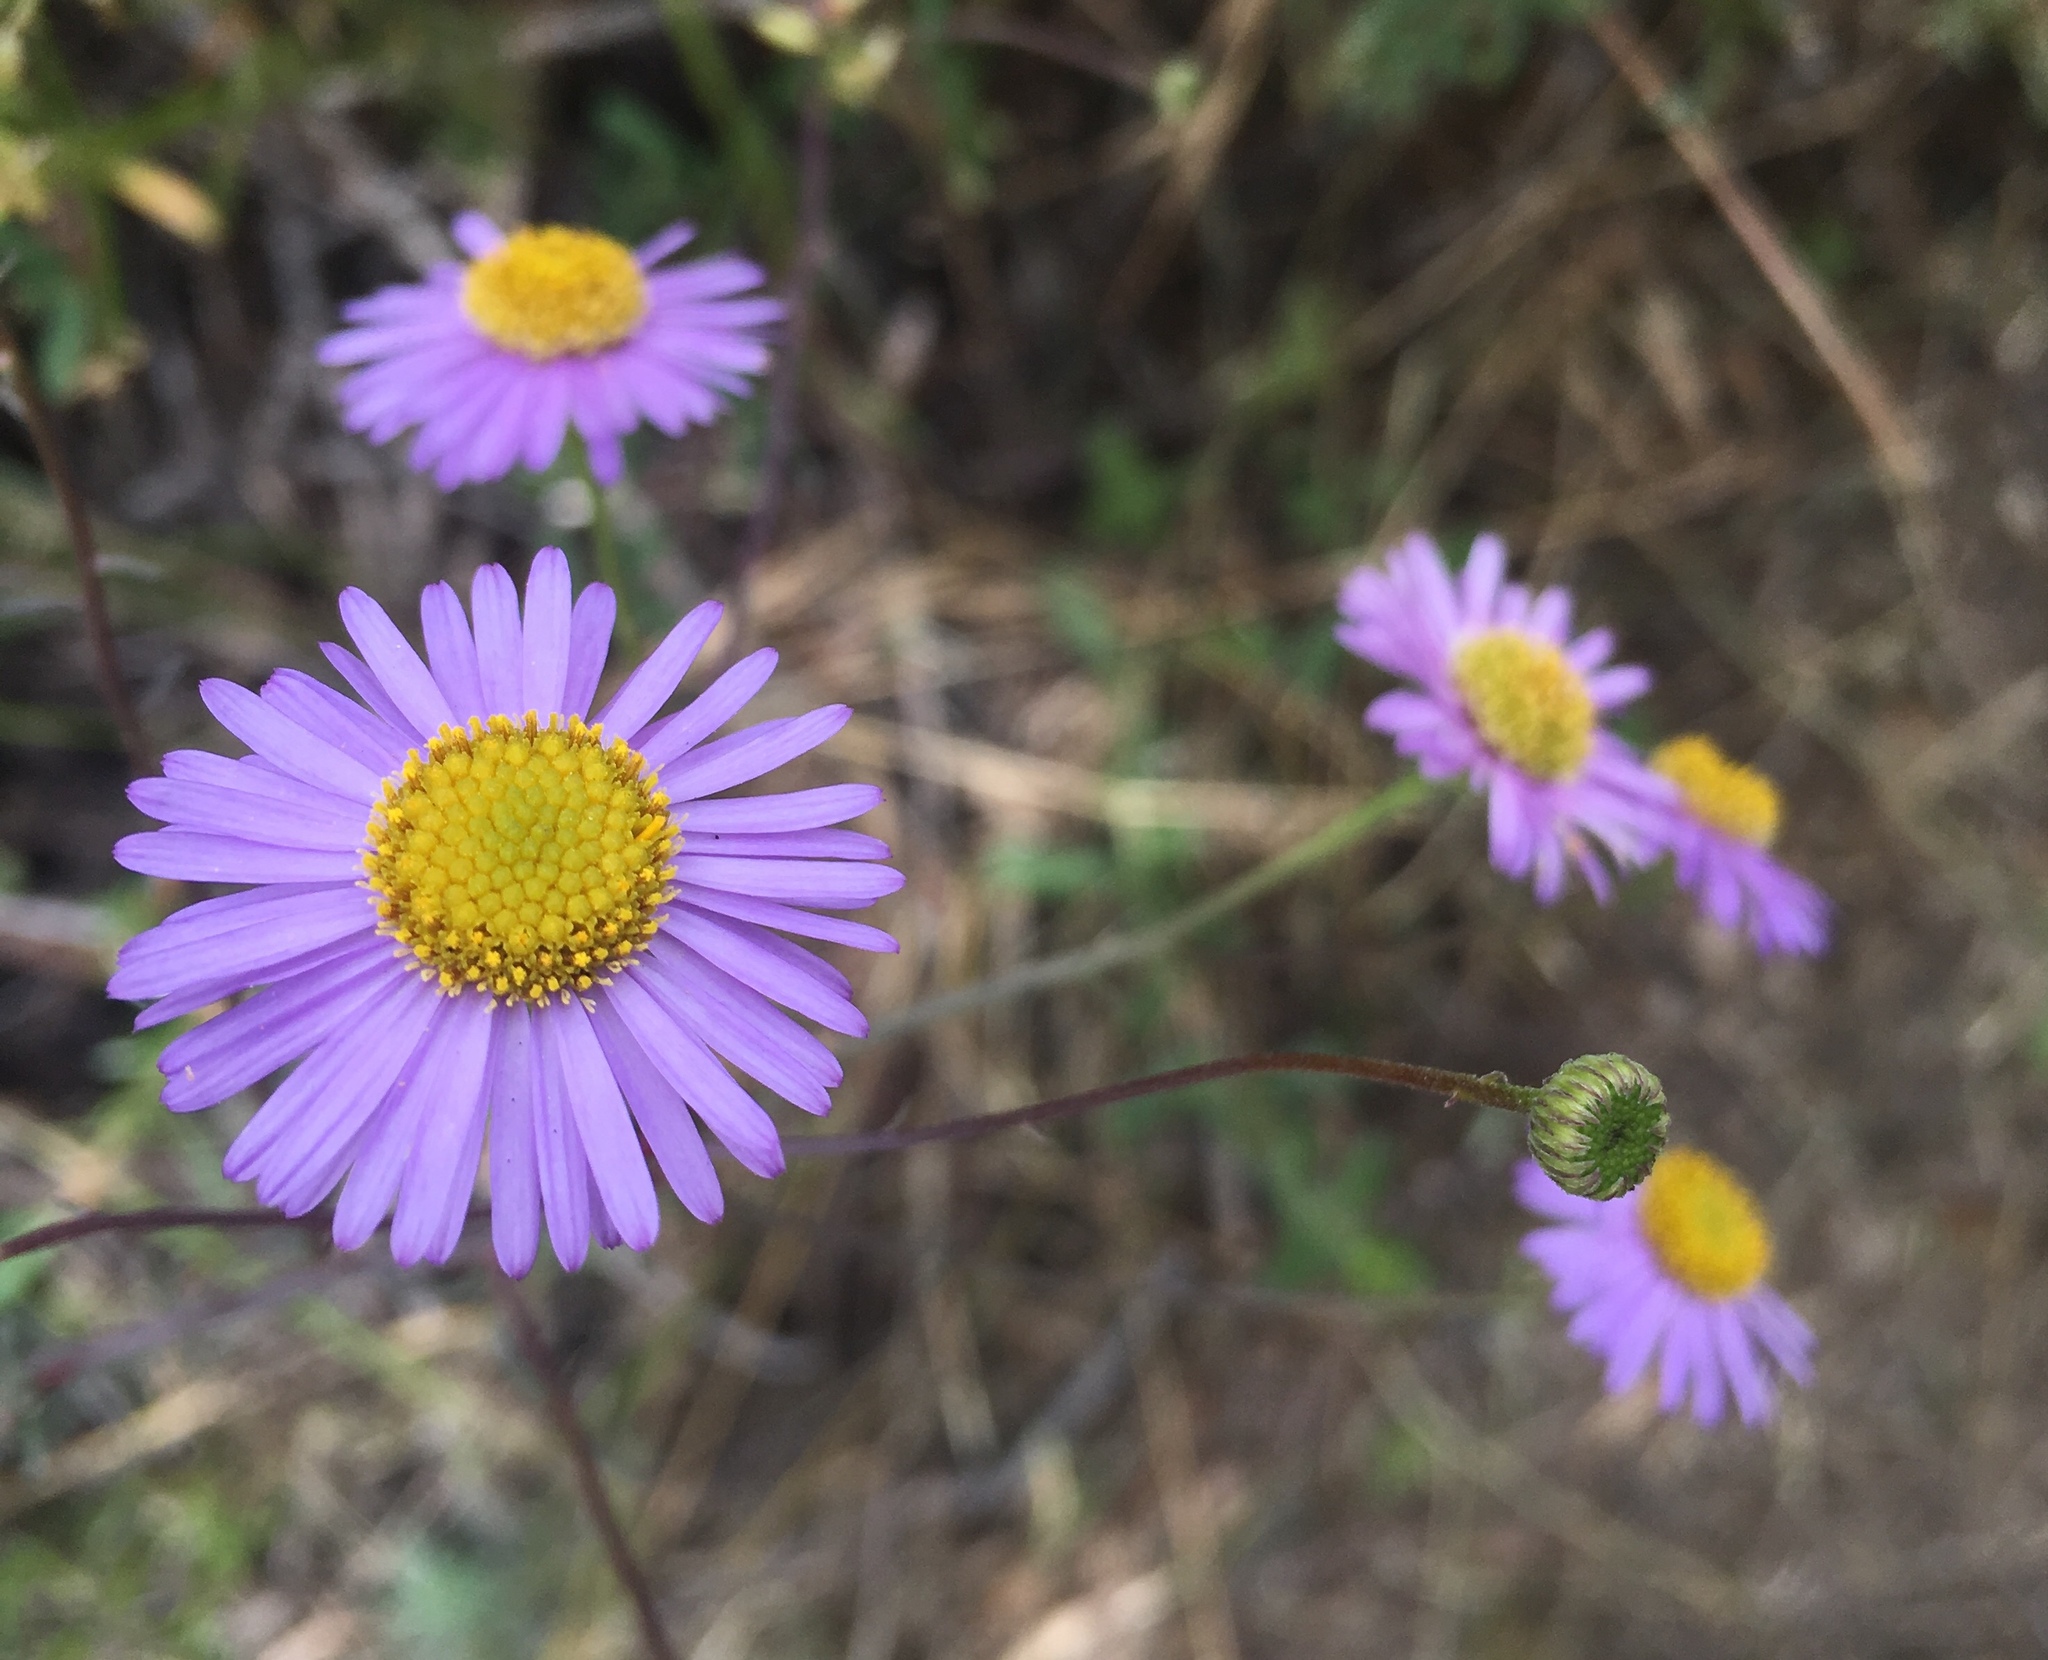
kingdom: Plantae
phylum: Tracheophyta
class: Magnoliopsida
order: Asterales
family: Asteraceae
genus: Erigeron
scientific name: Erigeron foliosus
